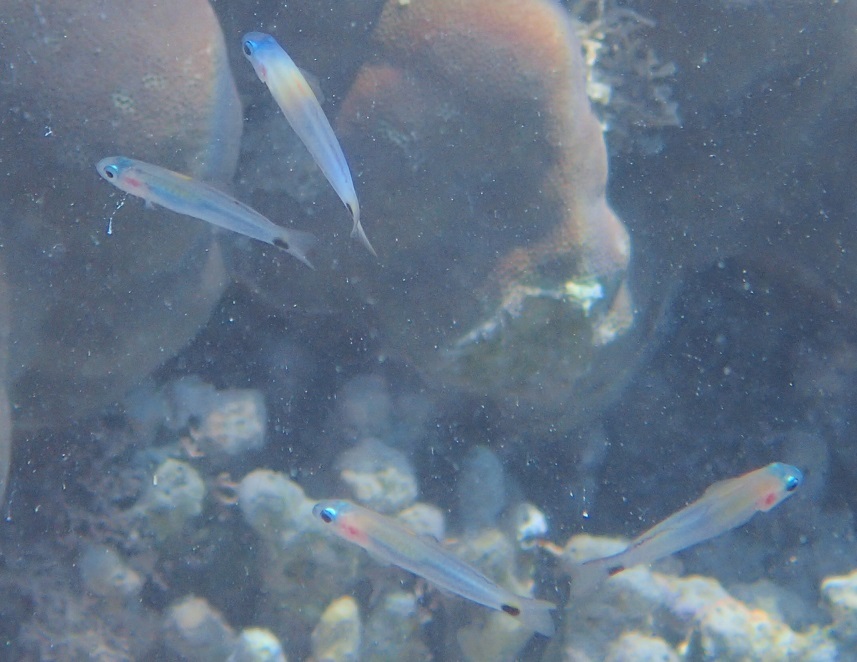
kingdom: Animalia
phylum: Chordata
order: Perciformes
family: Microdesmidae
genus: Ptereleotris
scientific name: Ptereleotris evides
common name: Blackfin dartfish
